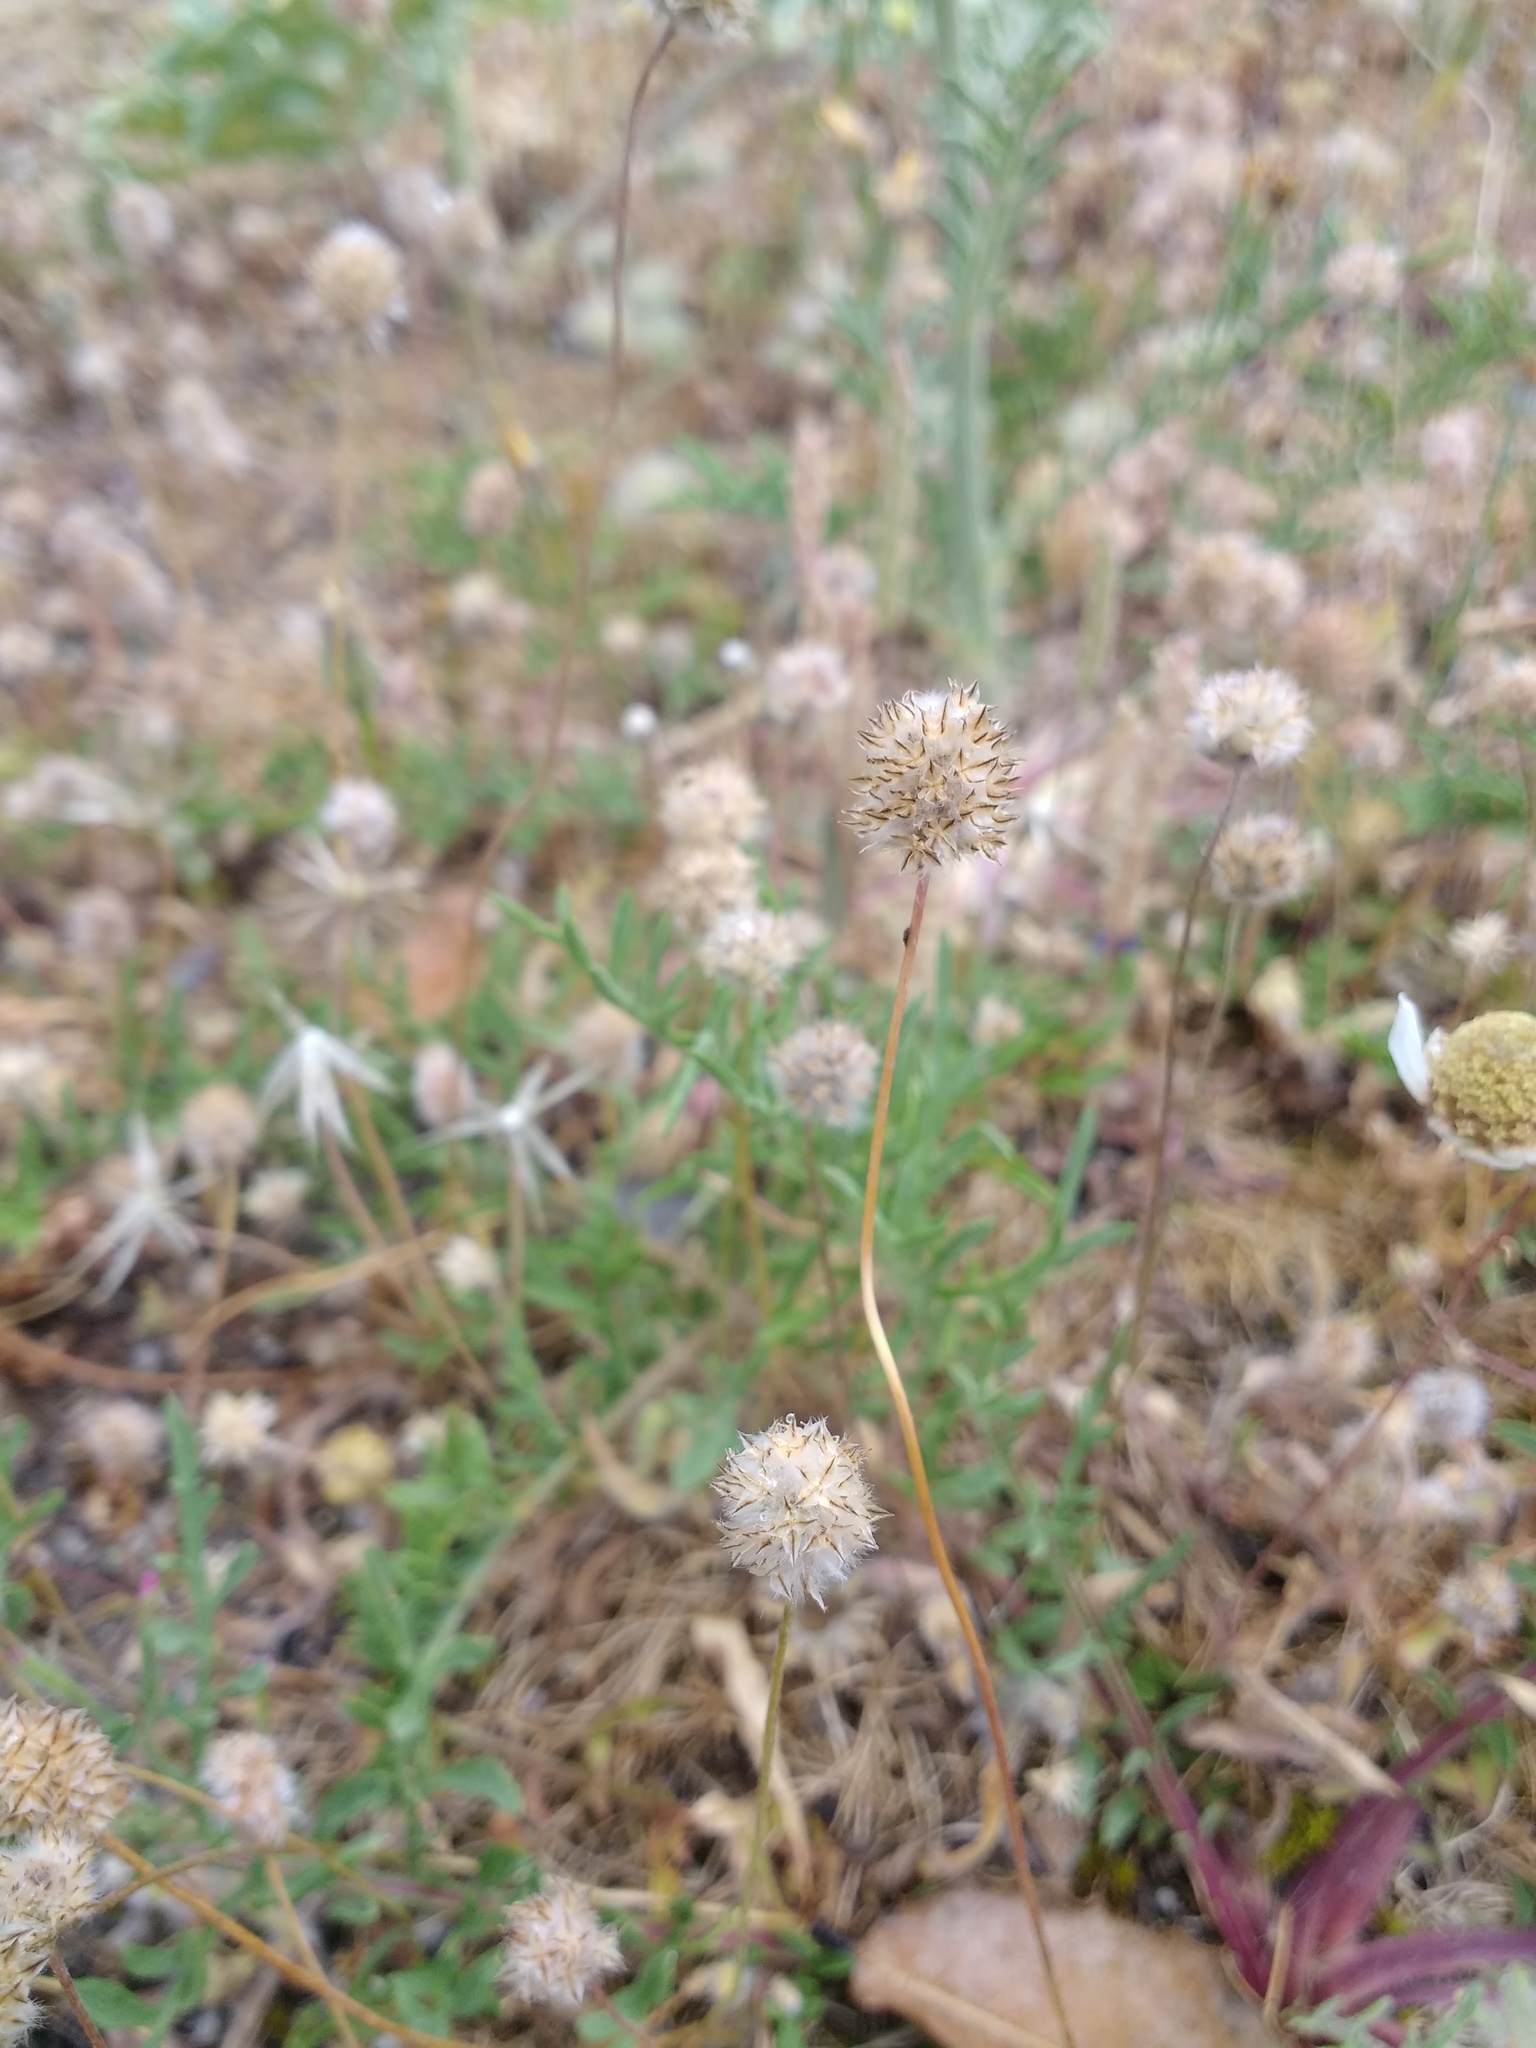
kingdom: Plantae
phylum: Tracheophyta
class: Magnoliopsida
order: Lamiales
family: Plantaginaceae
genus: Plantago
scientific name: Plantago lagopus
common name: Hare-foot plantain
